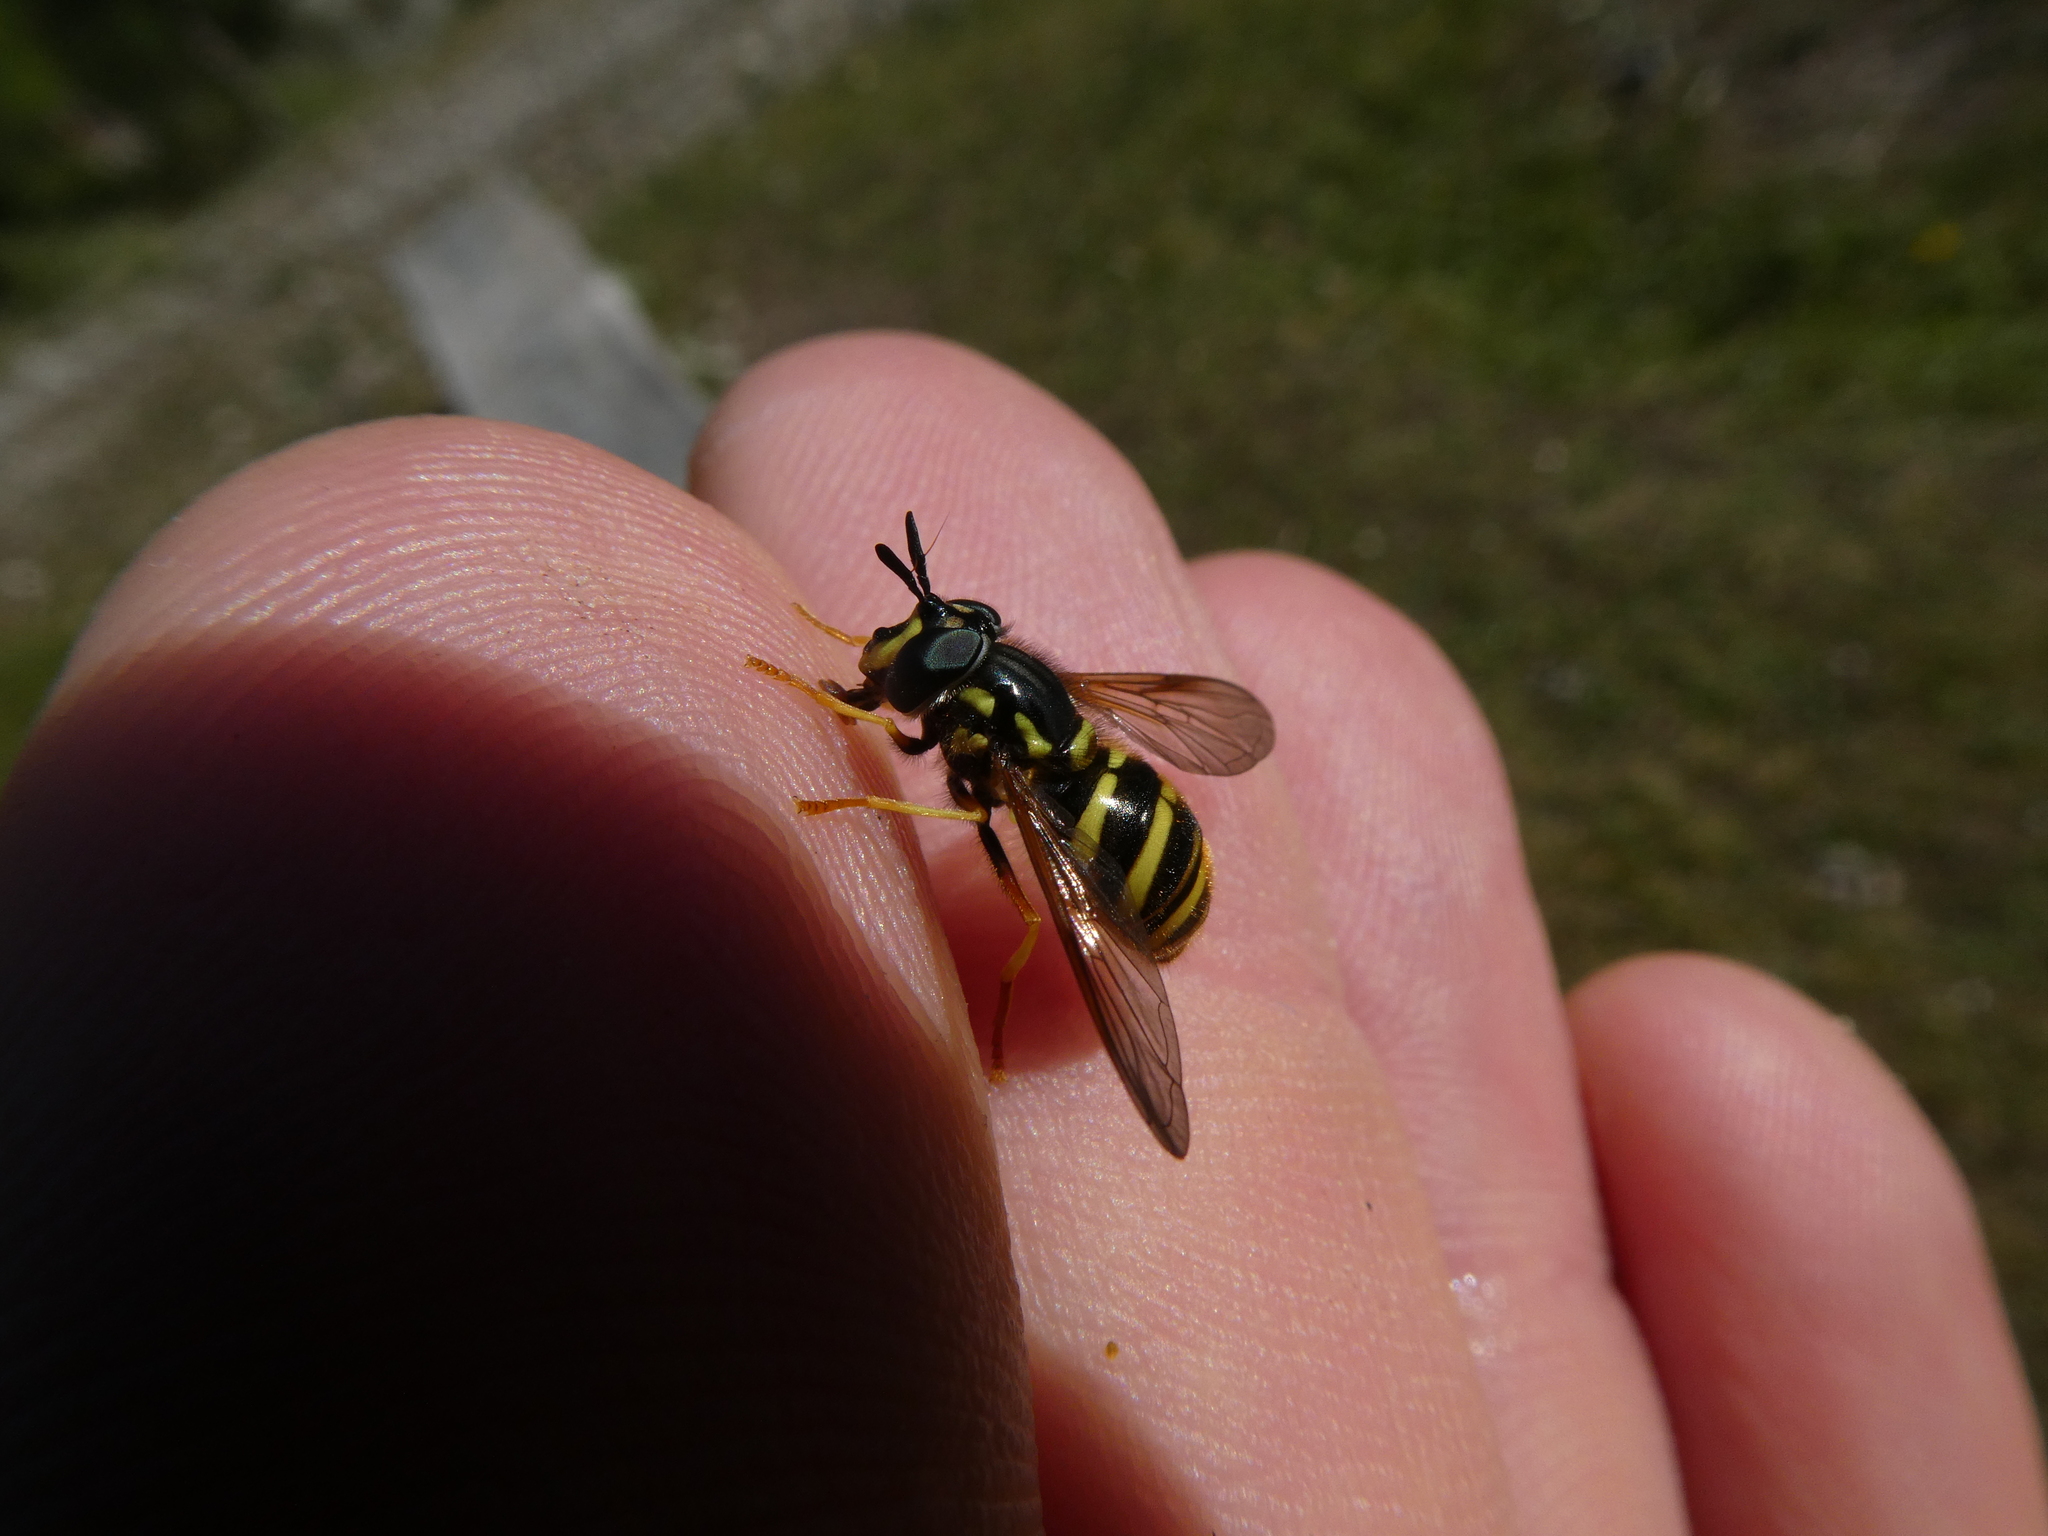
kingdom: Animalia
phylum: Arthropoda
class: Insecta
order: Diptera
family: Syrphidae
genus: Chrysotoxum
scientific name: Chrysotoxum arcuatum
